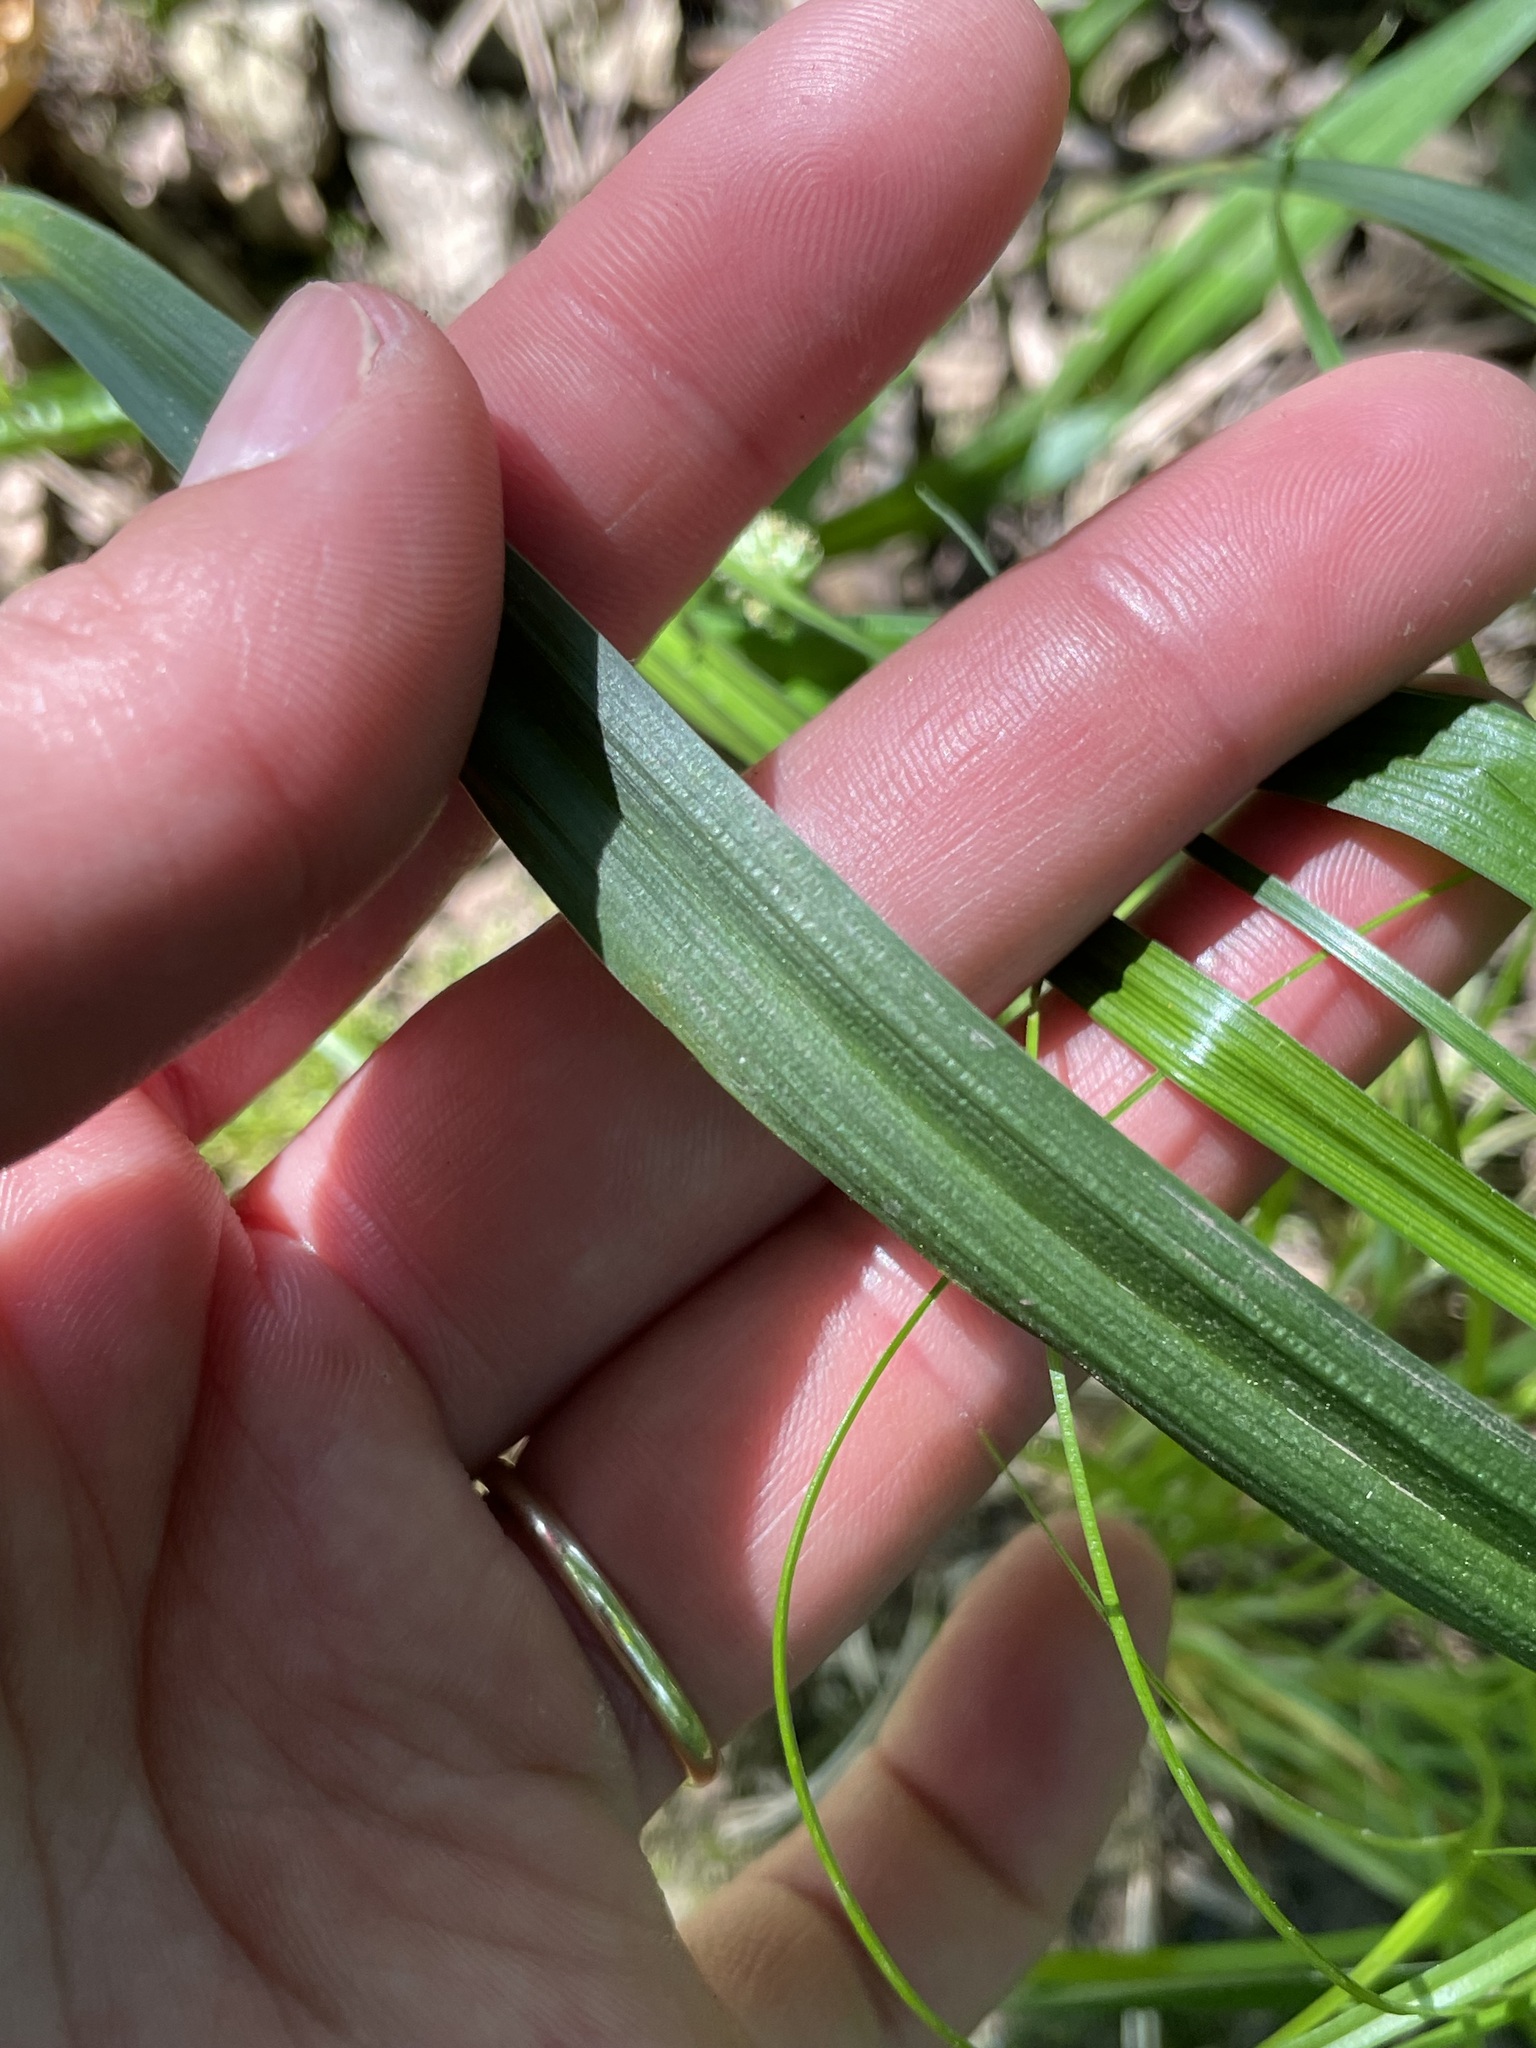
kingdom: Plantae
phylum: Tracheophyta
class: Liliopsida
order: Poales
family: Cyperaceae
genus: Carex
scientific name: Carex sparganioides
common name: Burreed sedge
